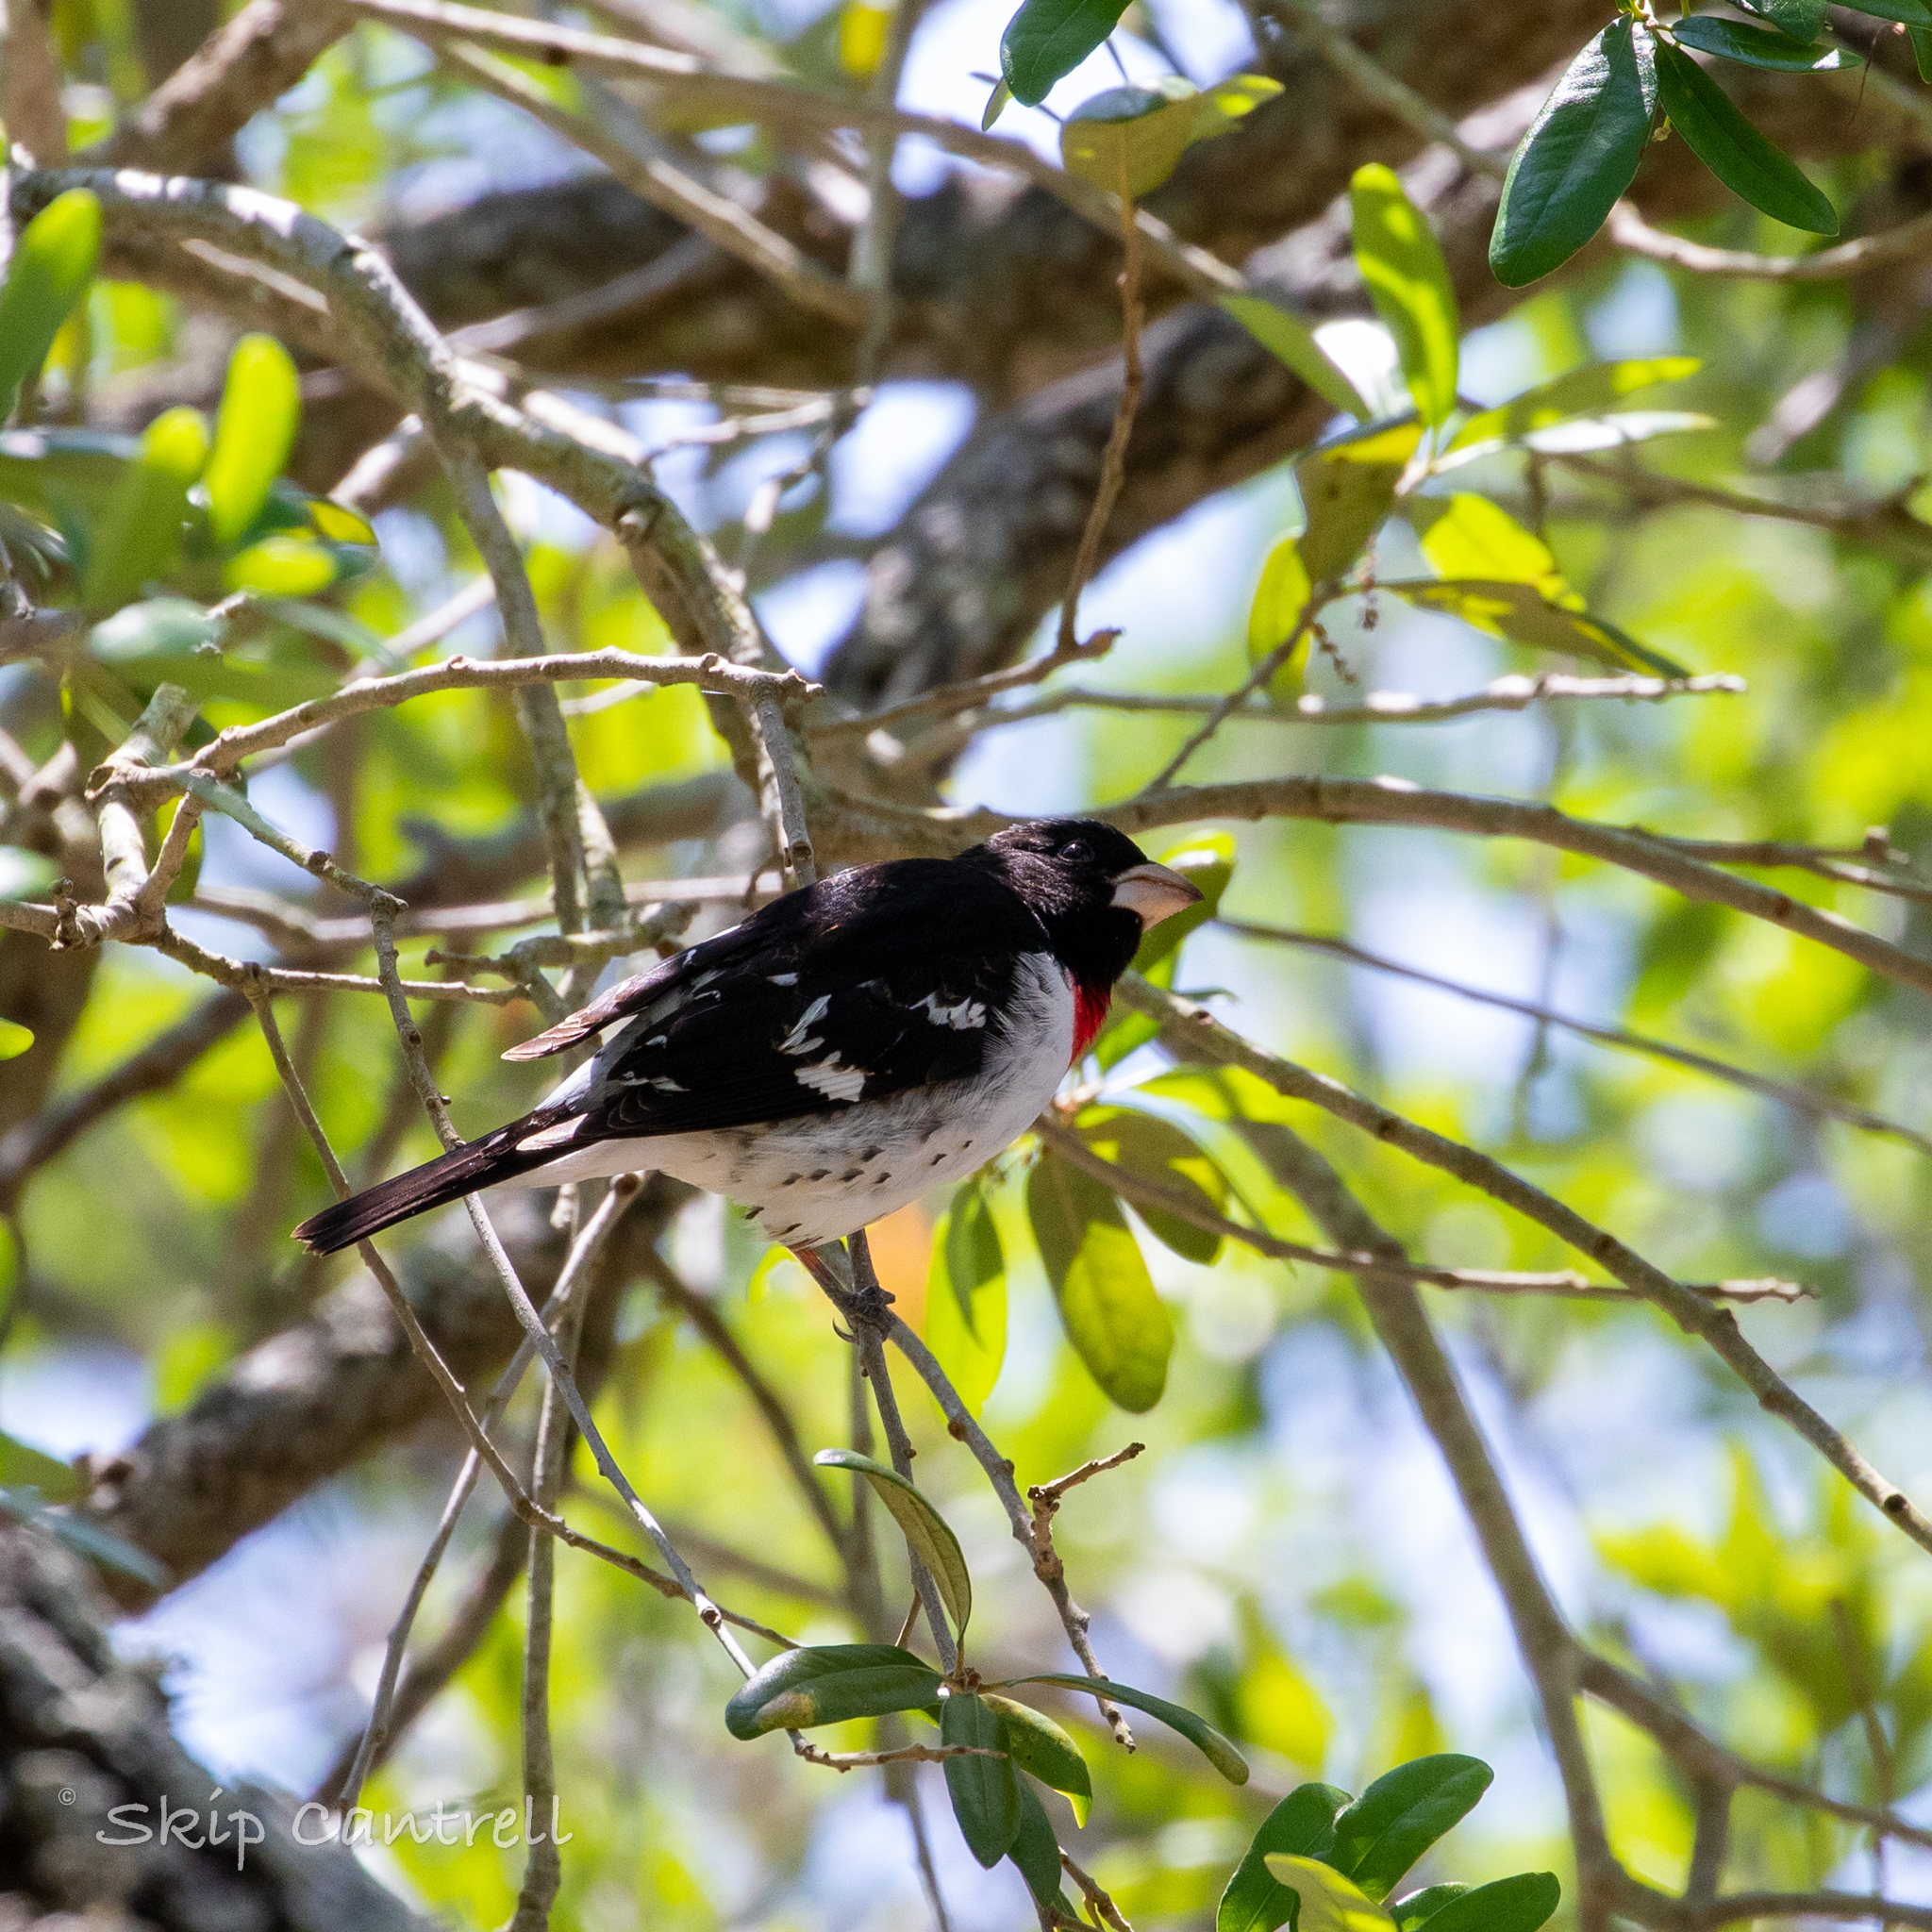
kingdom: Animalia
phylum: Chordata
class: Aves
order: Passeriformes
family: Cardinalidae
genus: Pheucticus
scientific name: Pheucticus ludovicianus
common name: Rose-breasted grosbeak
